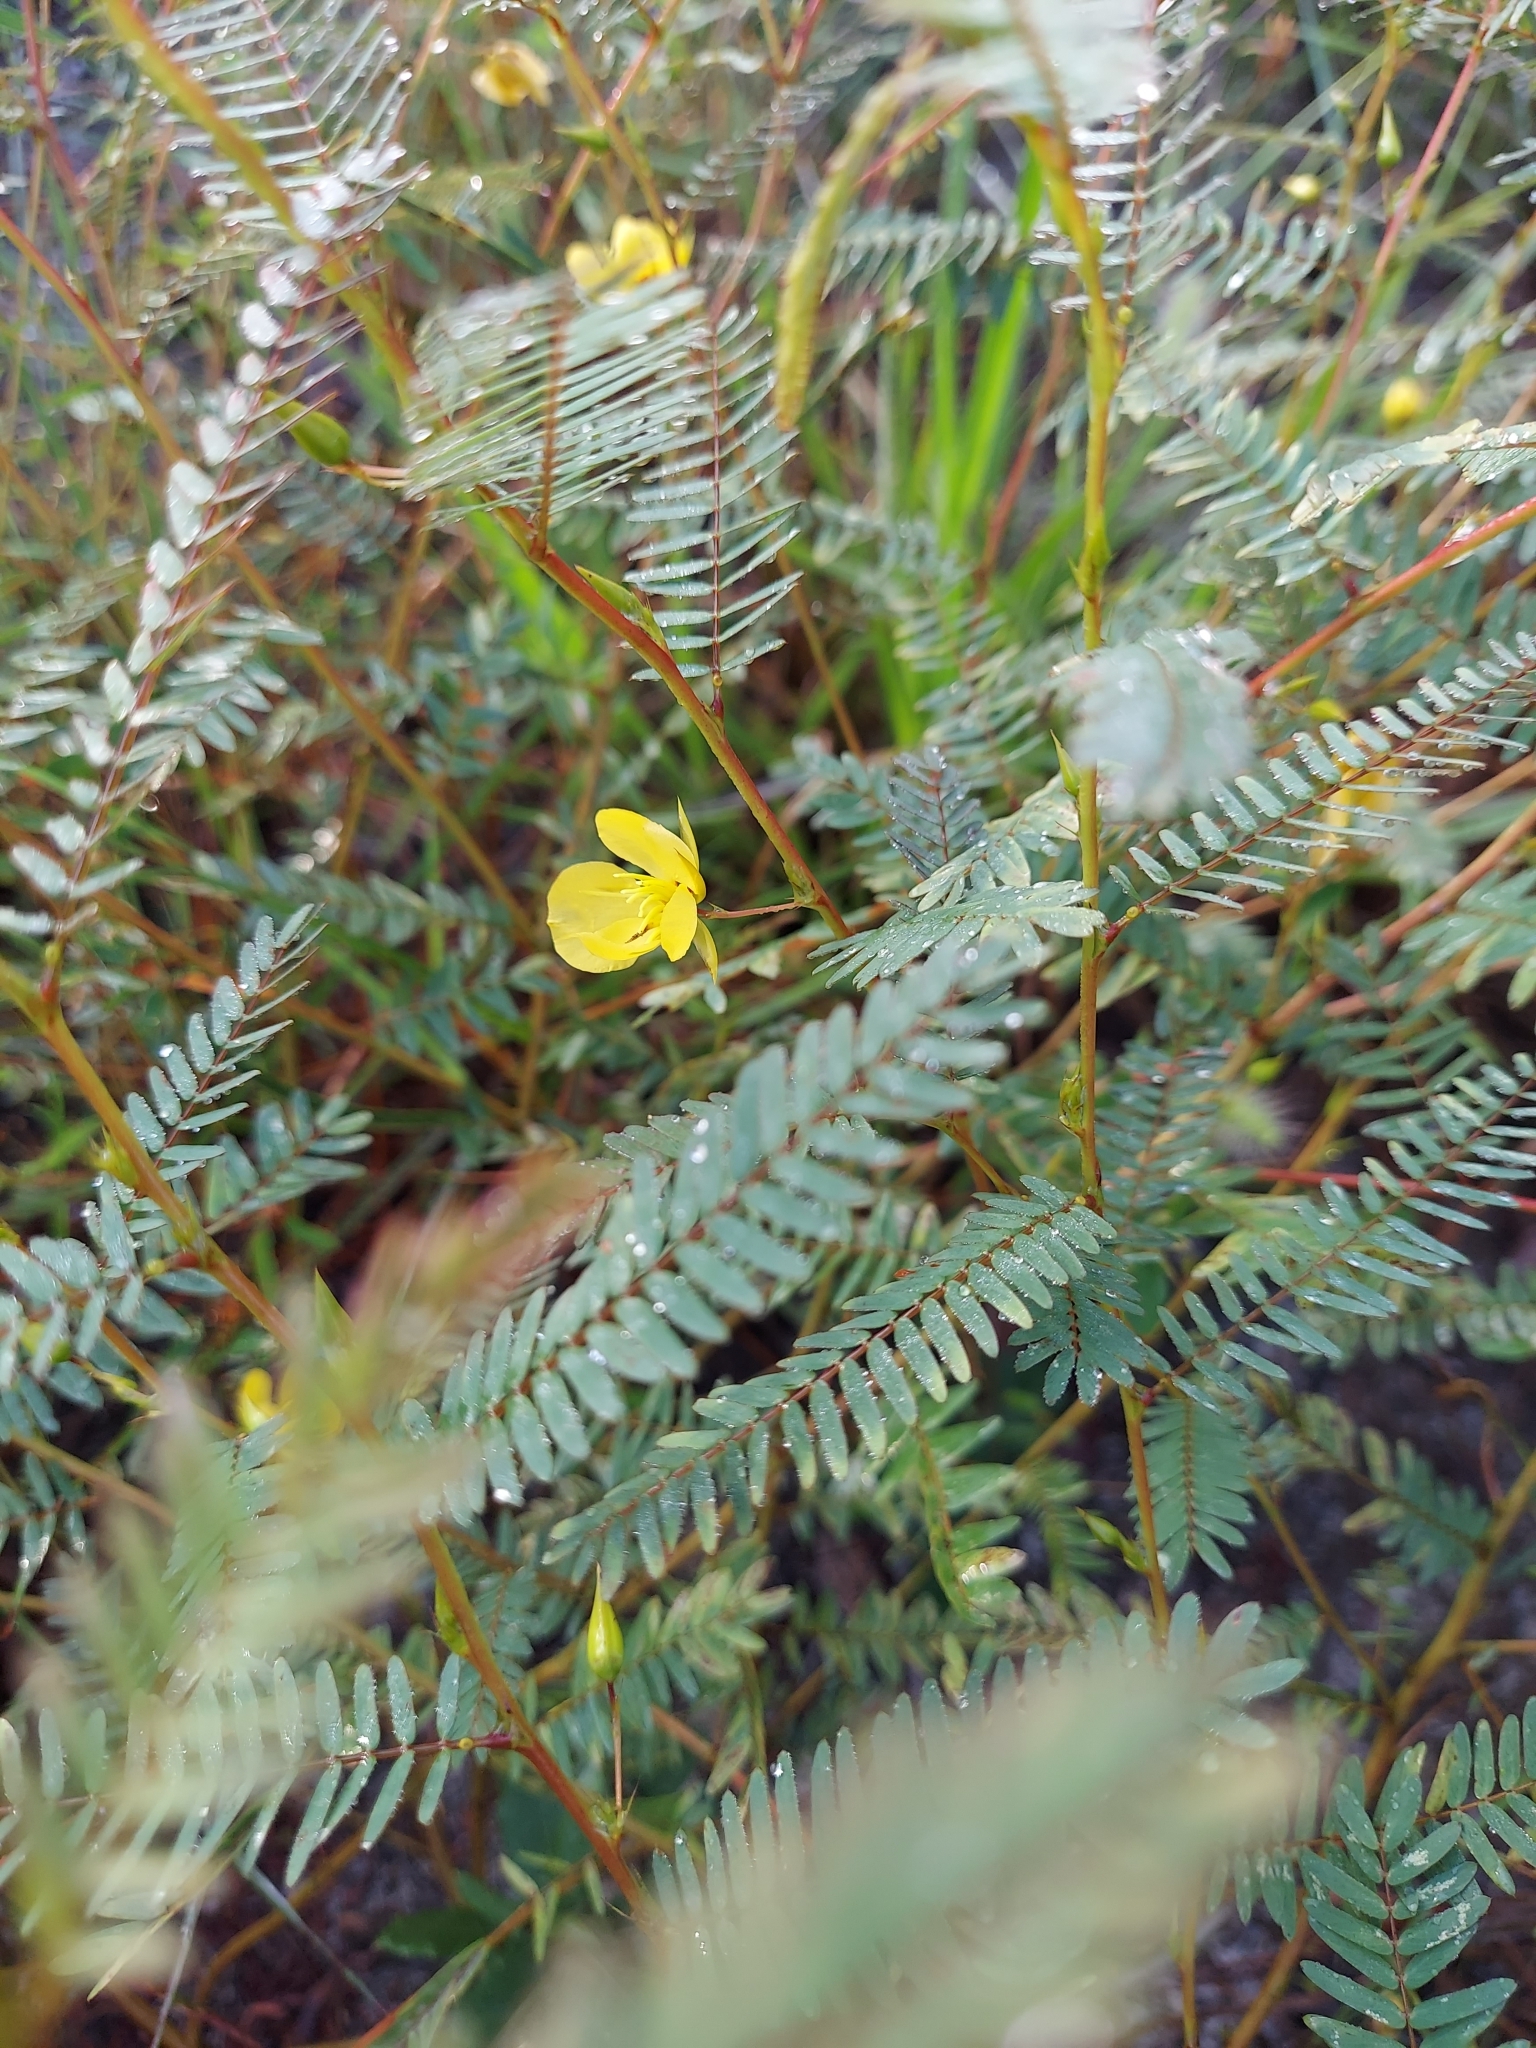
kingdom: Plantae
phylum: Tracheophyta
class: Magnoliopsida
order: Fabales
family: Fabaceae
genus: Chamaecrista
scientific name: Chamaecrista fasciculata
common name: Golden cassia
